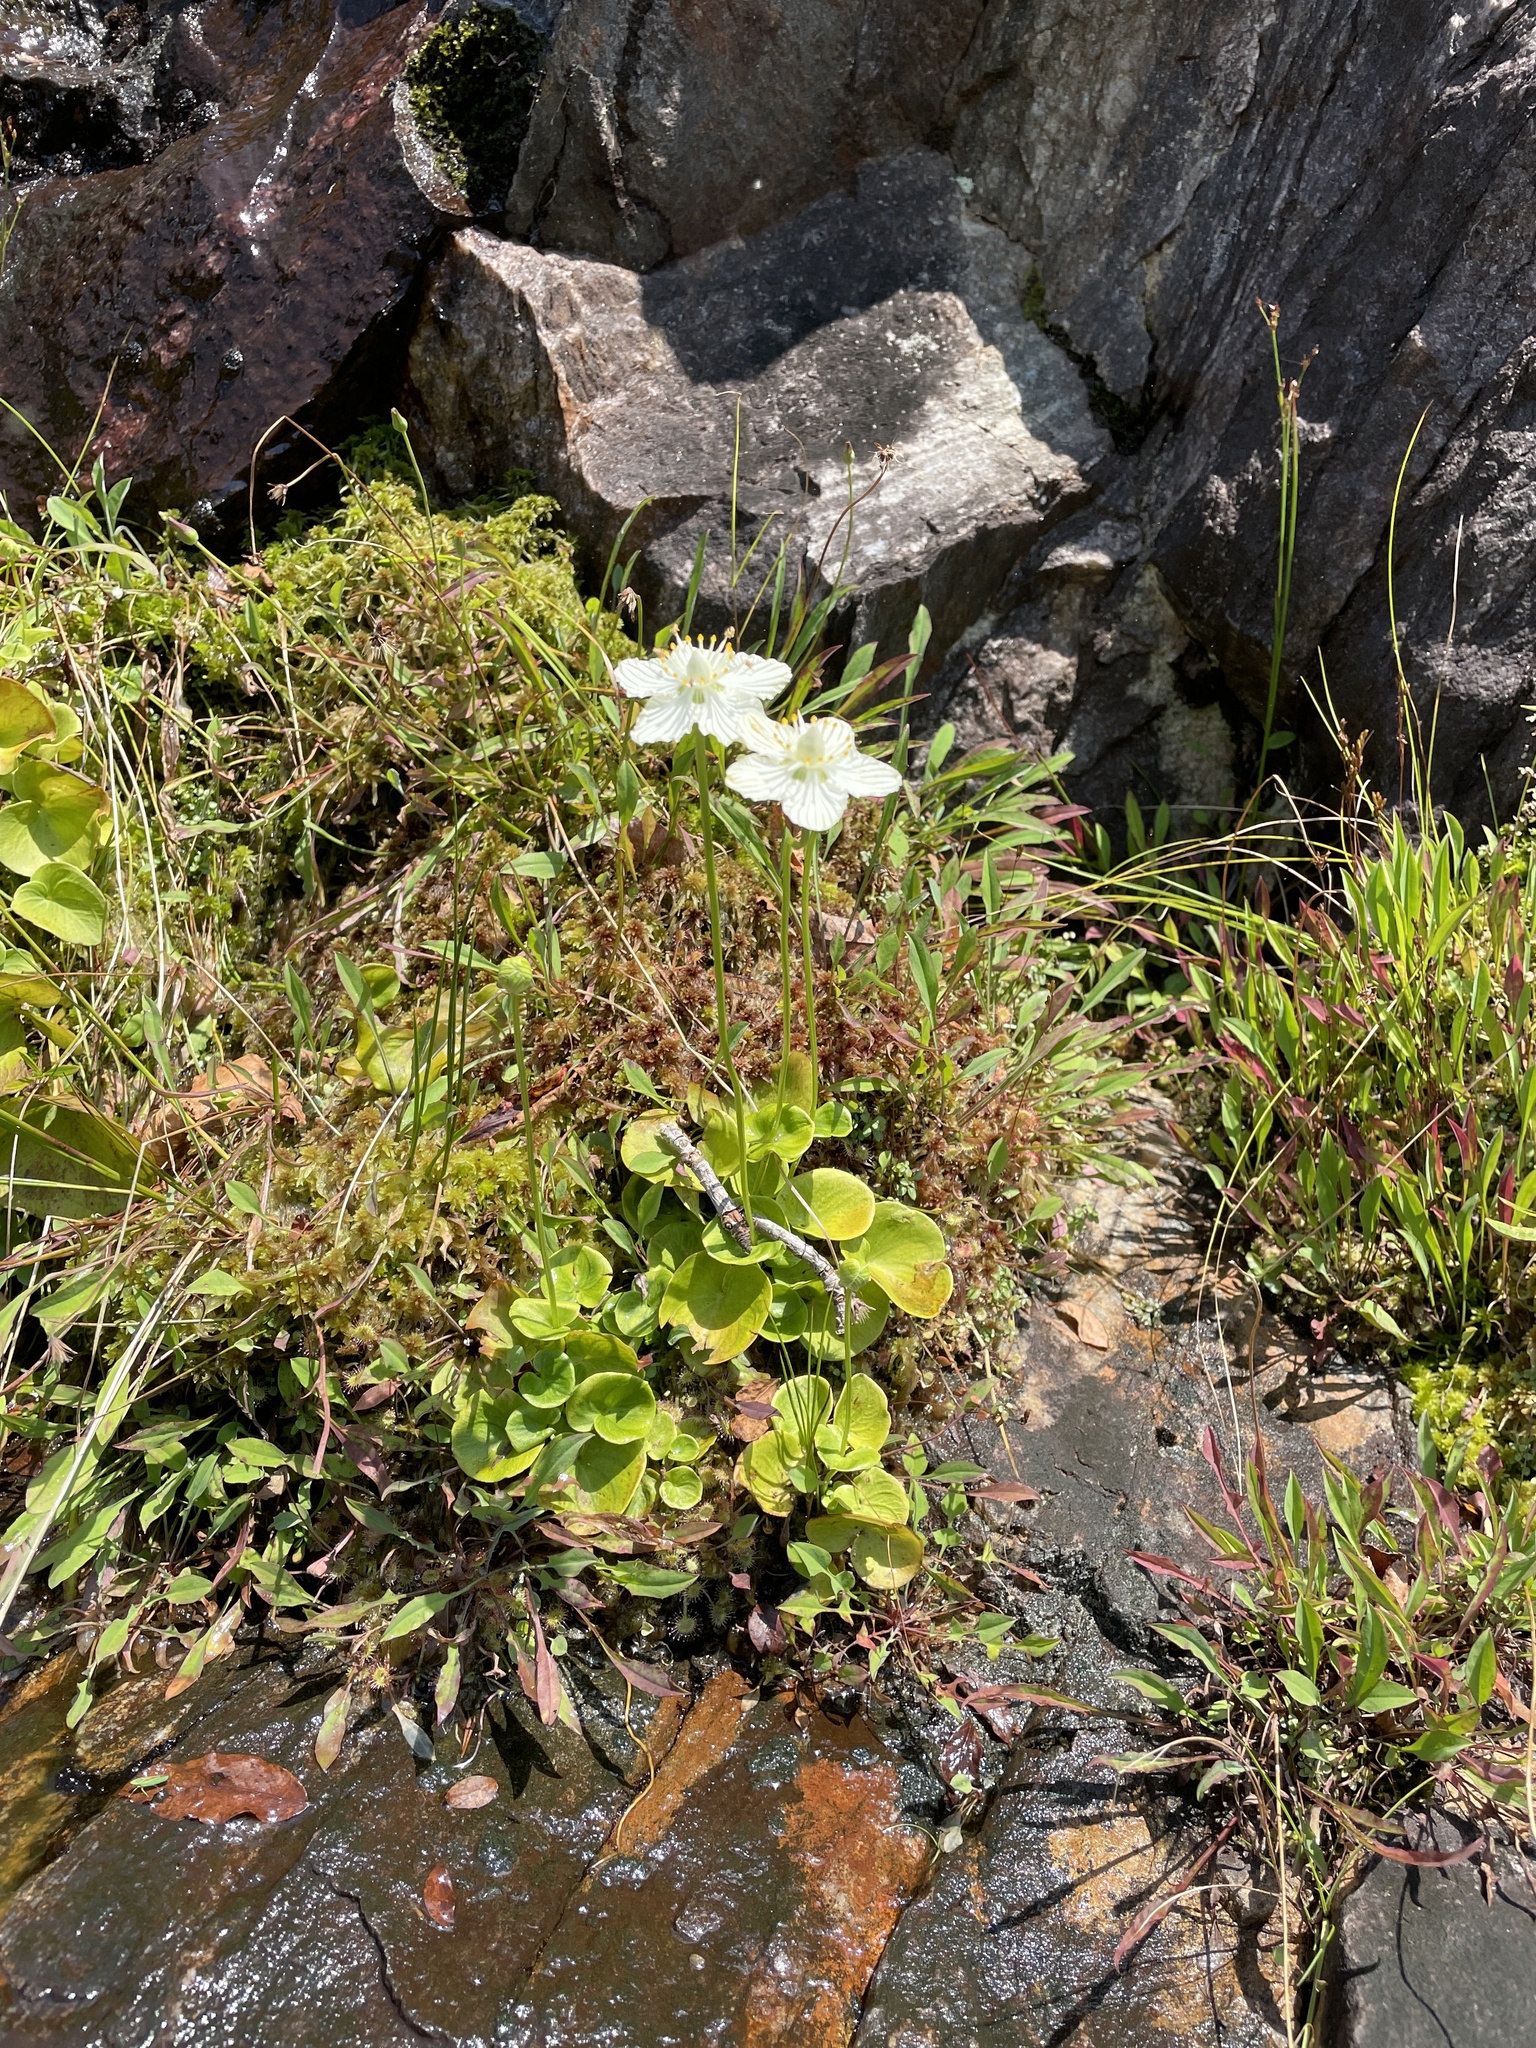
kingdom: Plantae
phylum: Tracheophyta
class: Magnoliopsida
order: Celastrales
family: Parnassiaceae
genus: Parnassia
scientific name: Parnassia asarifolia
